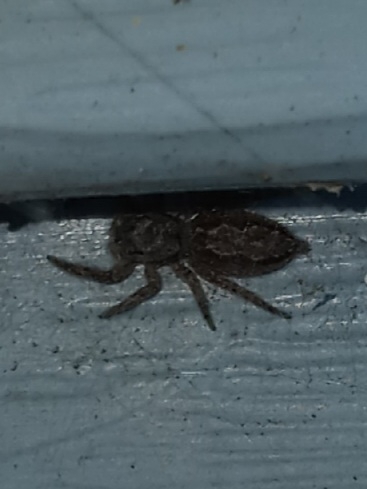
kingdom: Animalia
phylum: Arthropoda
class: Arachnida
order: Araneae
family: Salticidae
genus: Platycryptus
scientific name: Platycryptus undatus
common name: Tan jumping spider
